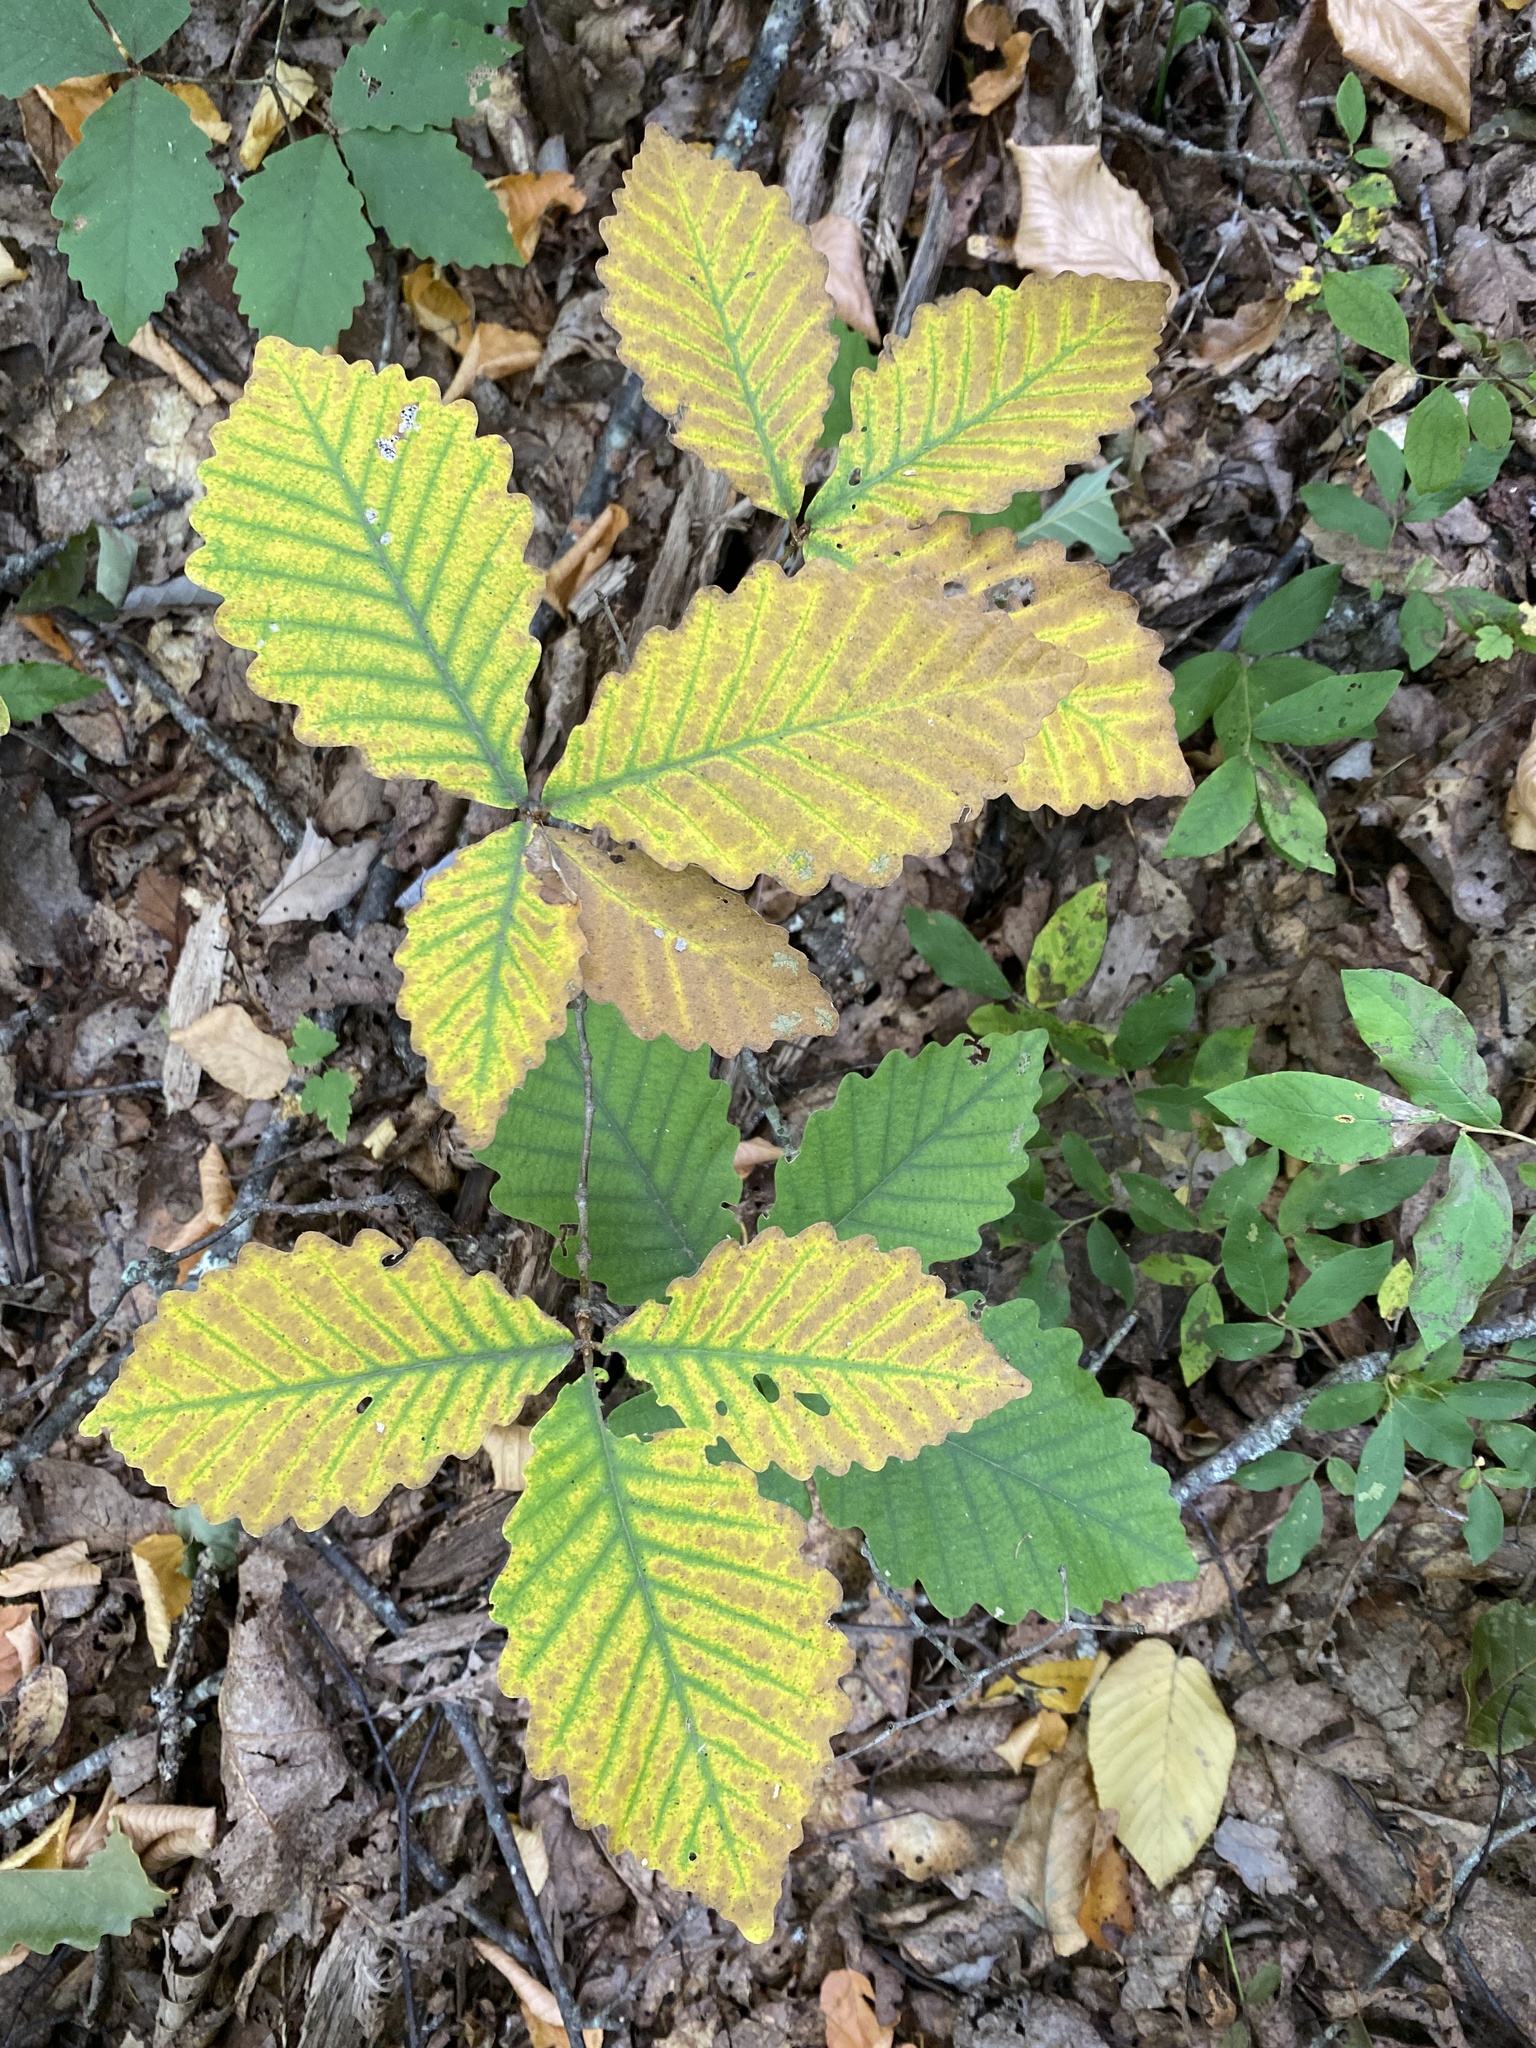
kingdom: Plantae
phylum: Tracheophyta
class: Magnoliopsida
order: Fagales
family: Fagaceae
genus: Quercus
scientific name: Quercus montana
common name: Chestnut oak
